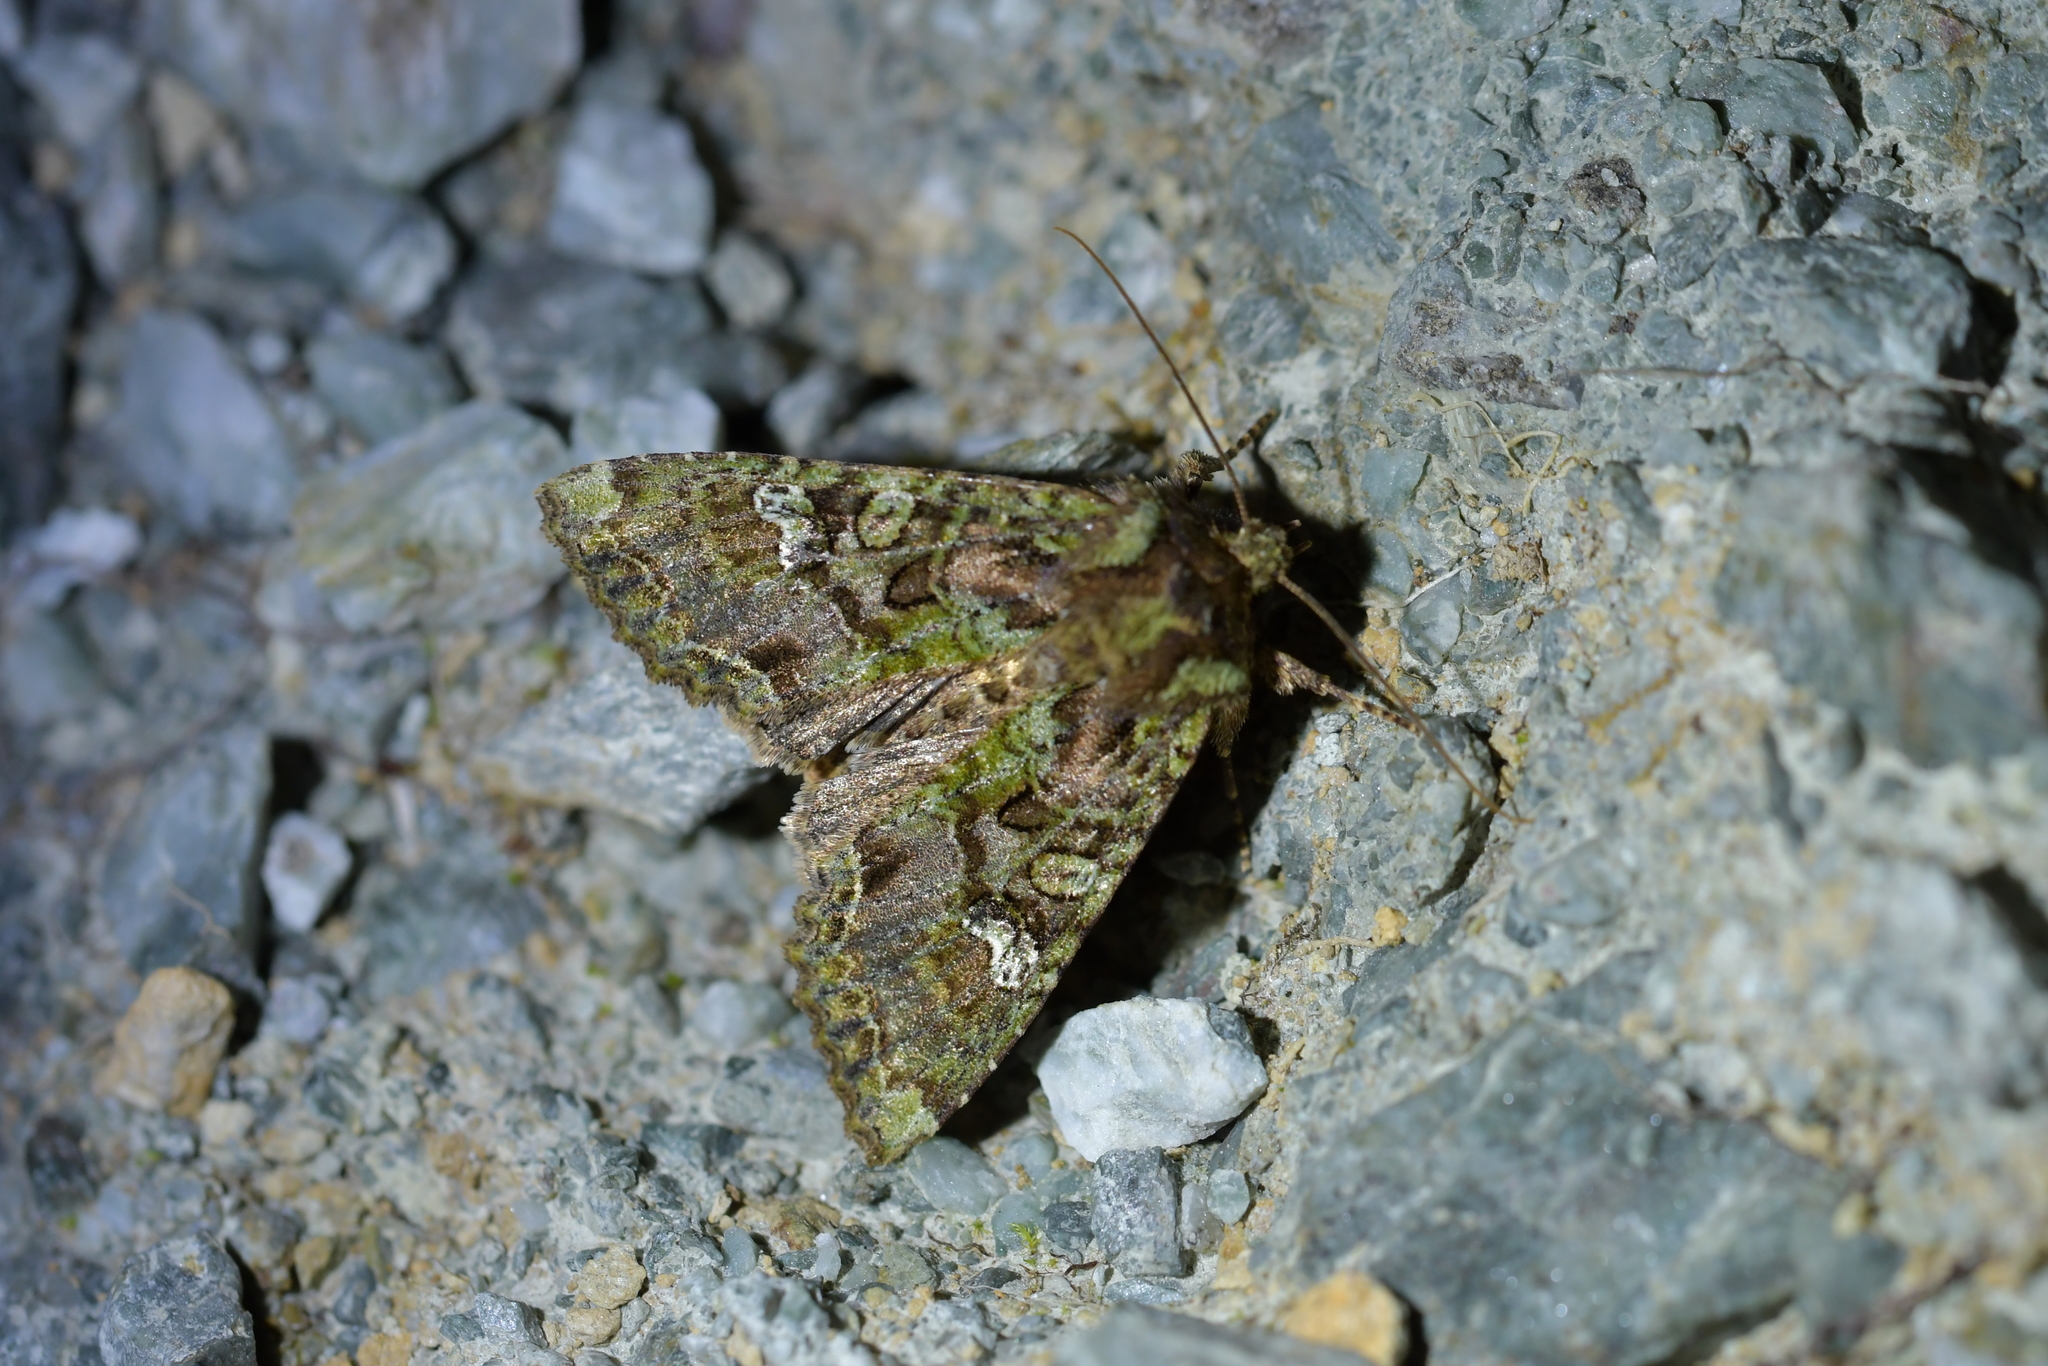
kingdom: Animalia
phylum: Arthropoda
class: Insecta
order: Lepidoptera
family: Noctuidae
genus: Meterana
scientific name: Meterana
